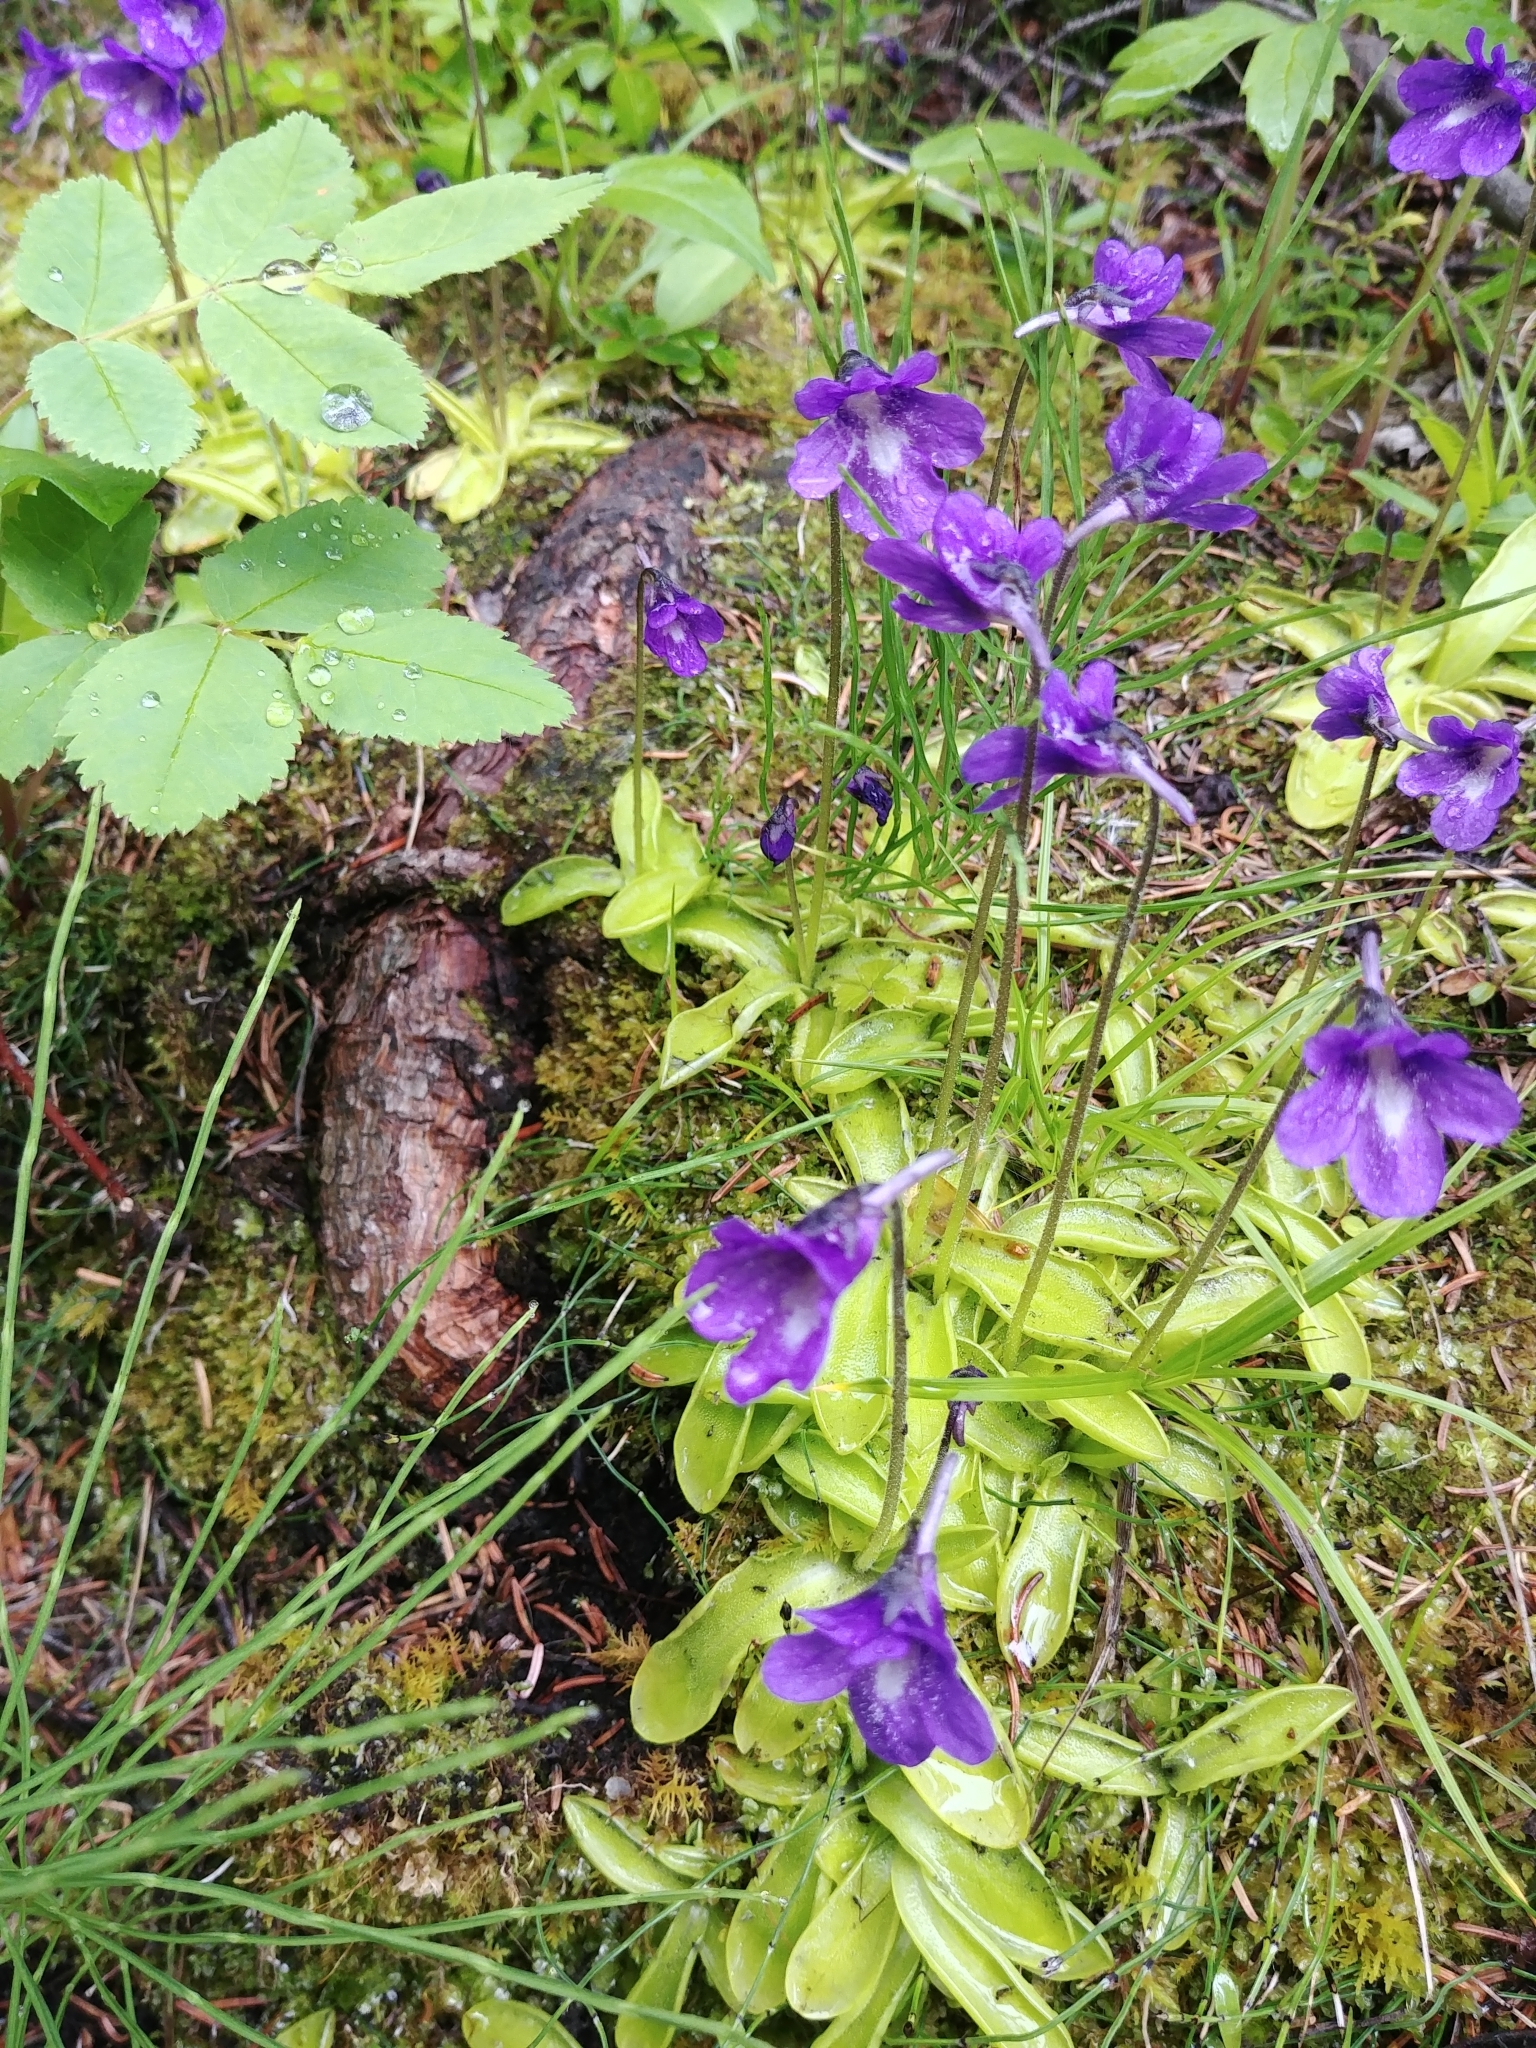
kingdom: Plantae
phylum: Tracheophyta
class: Magnoliopsida
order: Lamiales
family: Lentibulariaceae
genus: Pinguicula
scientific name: Pinguicula vulgaris
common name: Common butterwort
